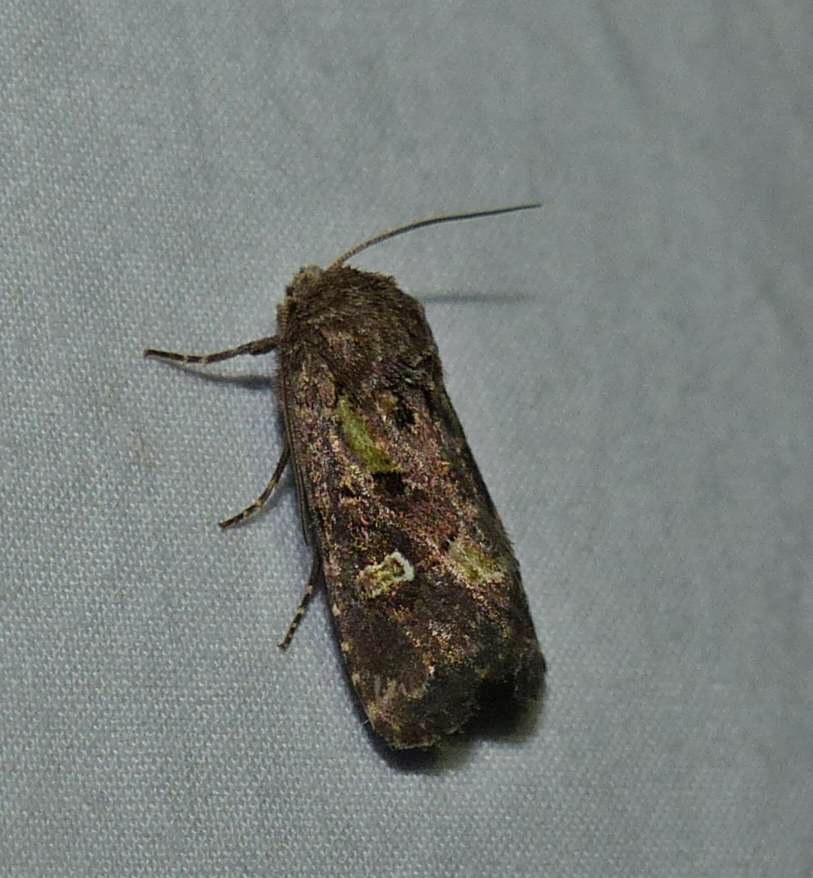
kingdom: Animalia
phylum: Arthropoda
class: Insecta
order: Lepidoptera
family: Noctuidae
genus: Lacinipolia
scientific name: Lacinipolia renigera
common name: Kidney-spotted minor
